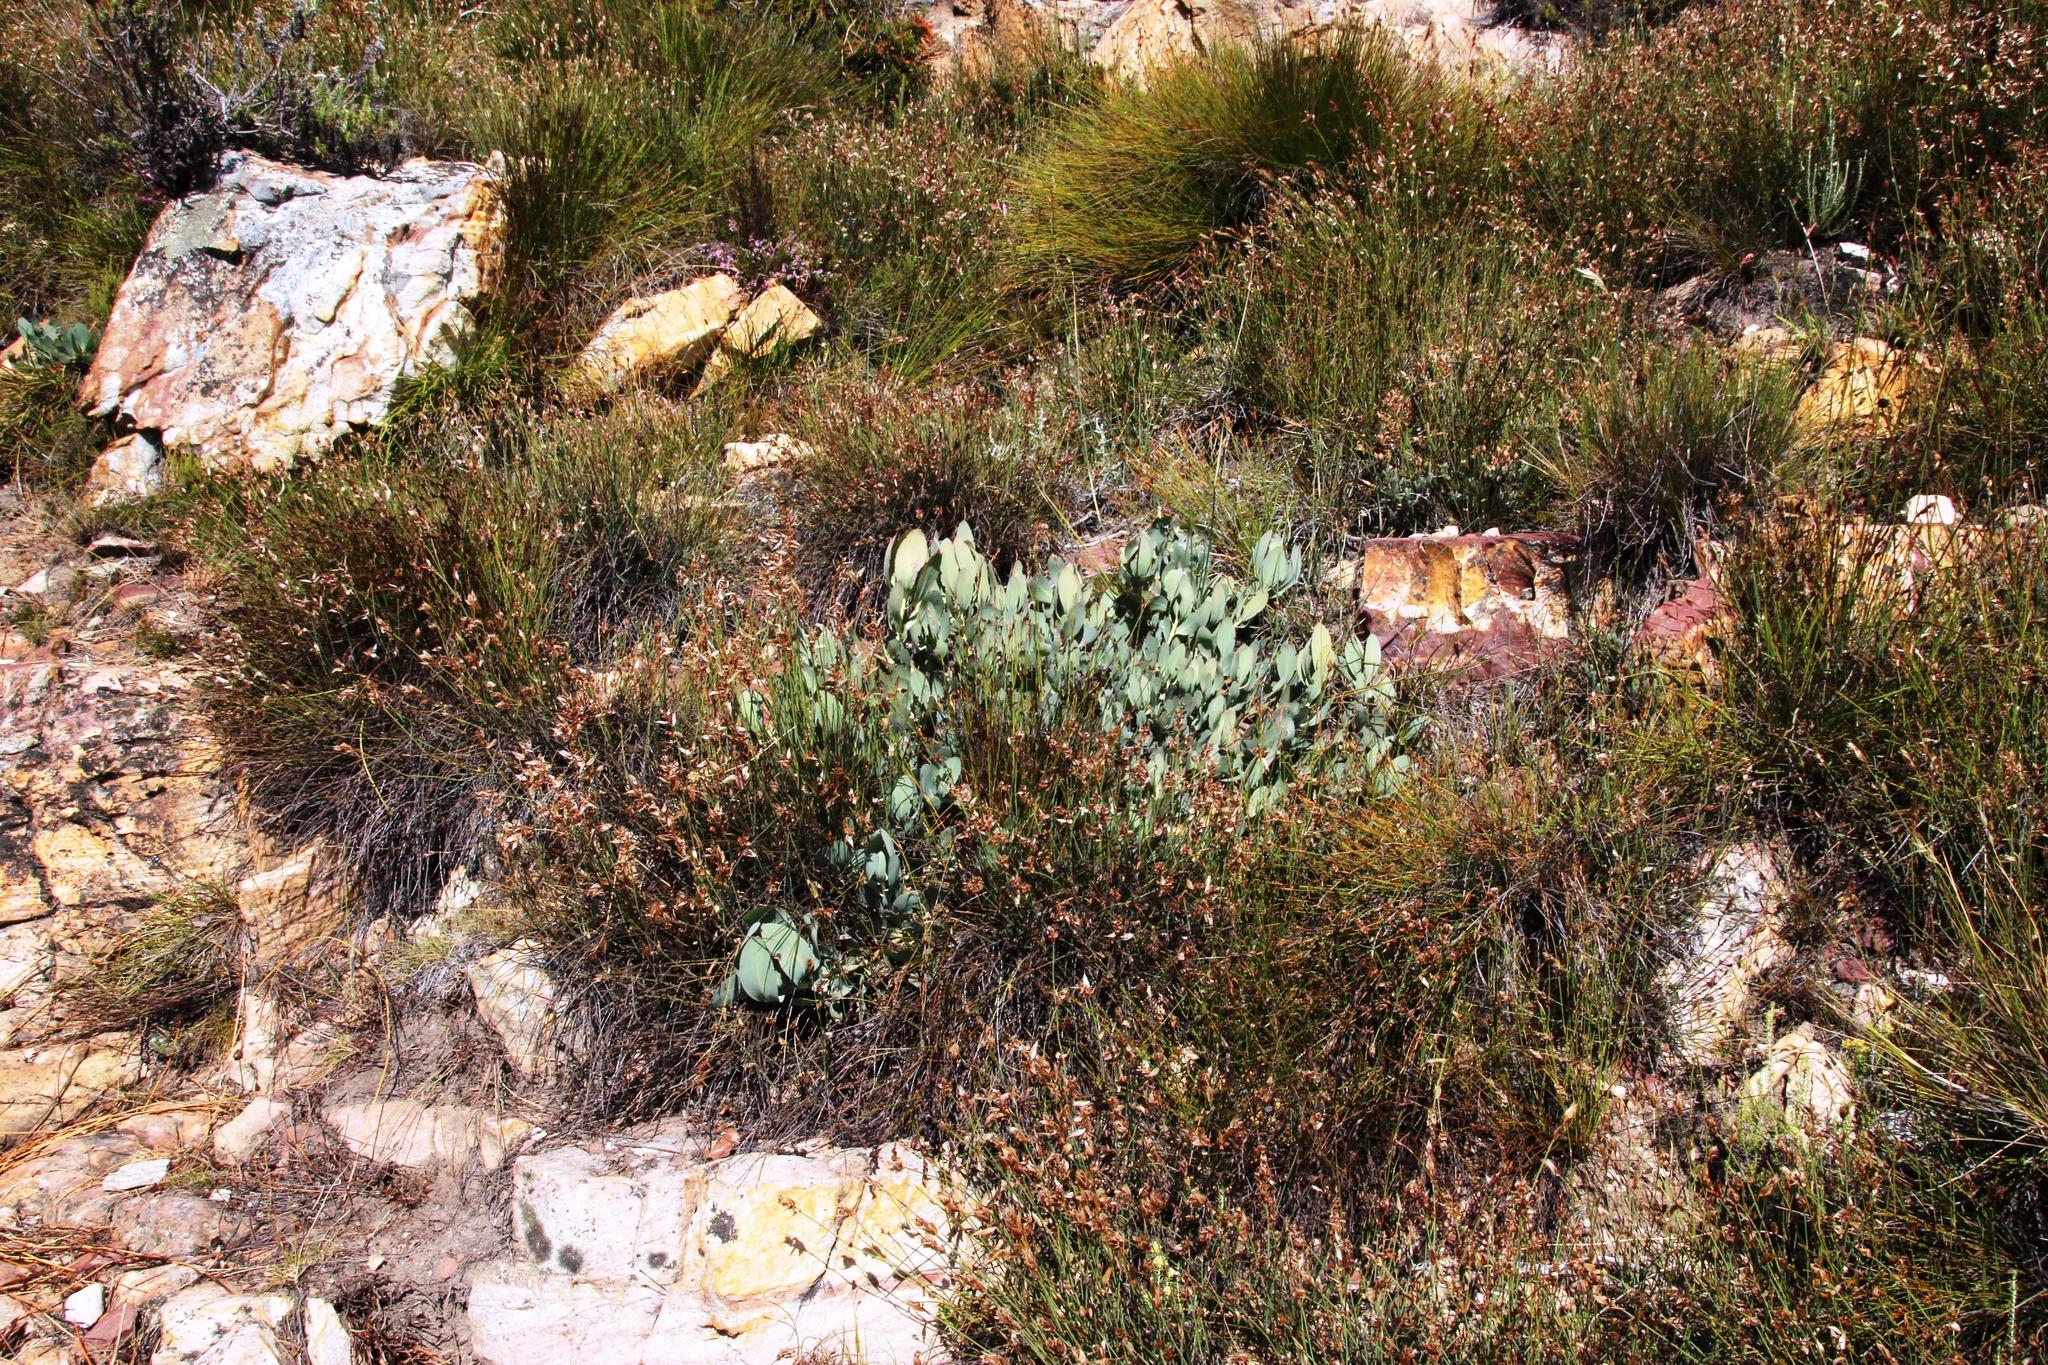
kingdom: Plantae
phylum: Tracheophyta
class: Magnoliopsida
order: Proteales
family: Proteaceae
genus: Protea
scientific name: Protea recondita
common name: Hidden sugarbush
